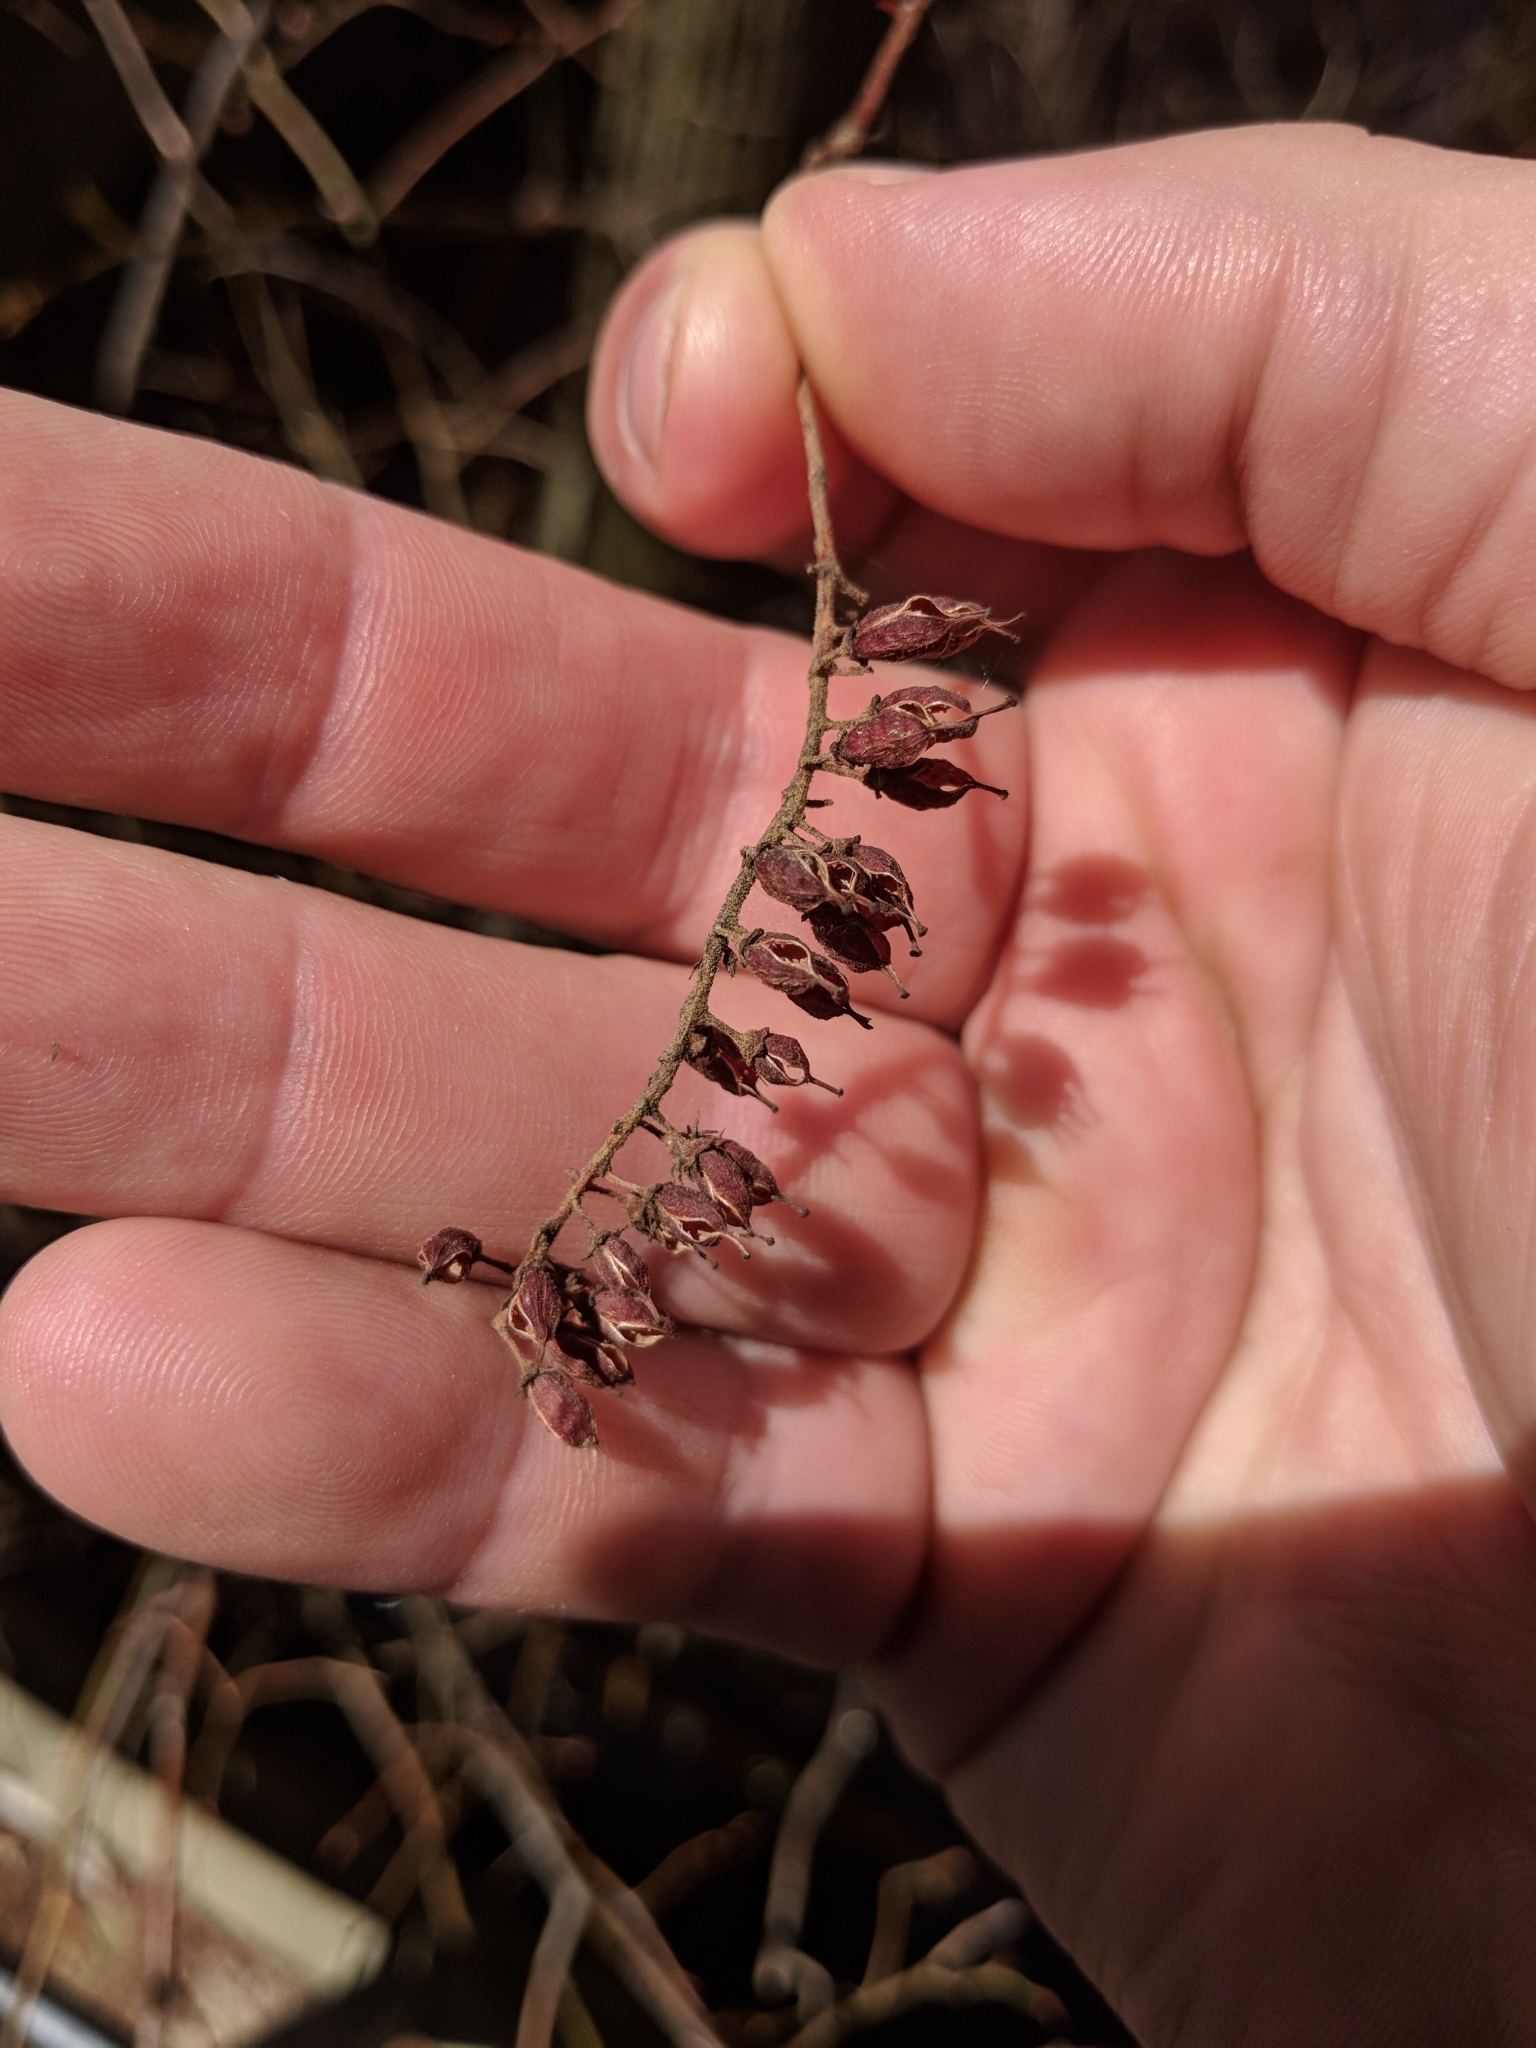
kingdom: Plantae
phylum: Tracheophyta
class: Magnoliopsida
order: Saxifragales
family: Iteaceae
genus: Itea
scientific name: Itea virginica
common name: Sweetspire
